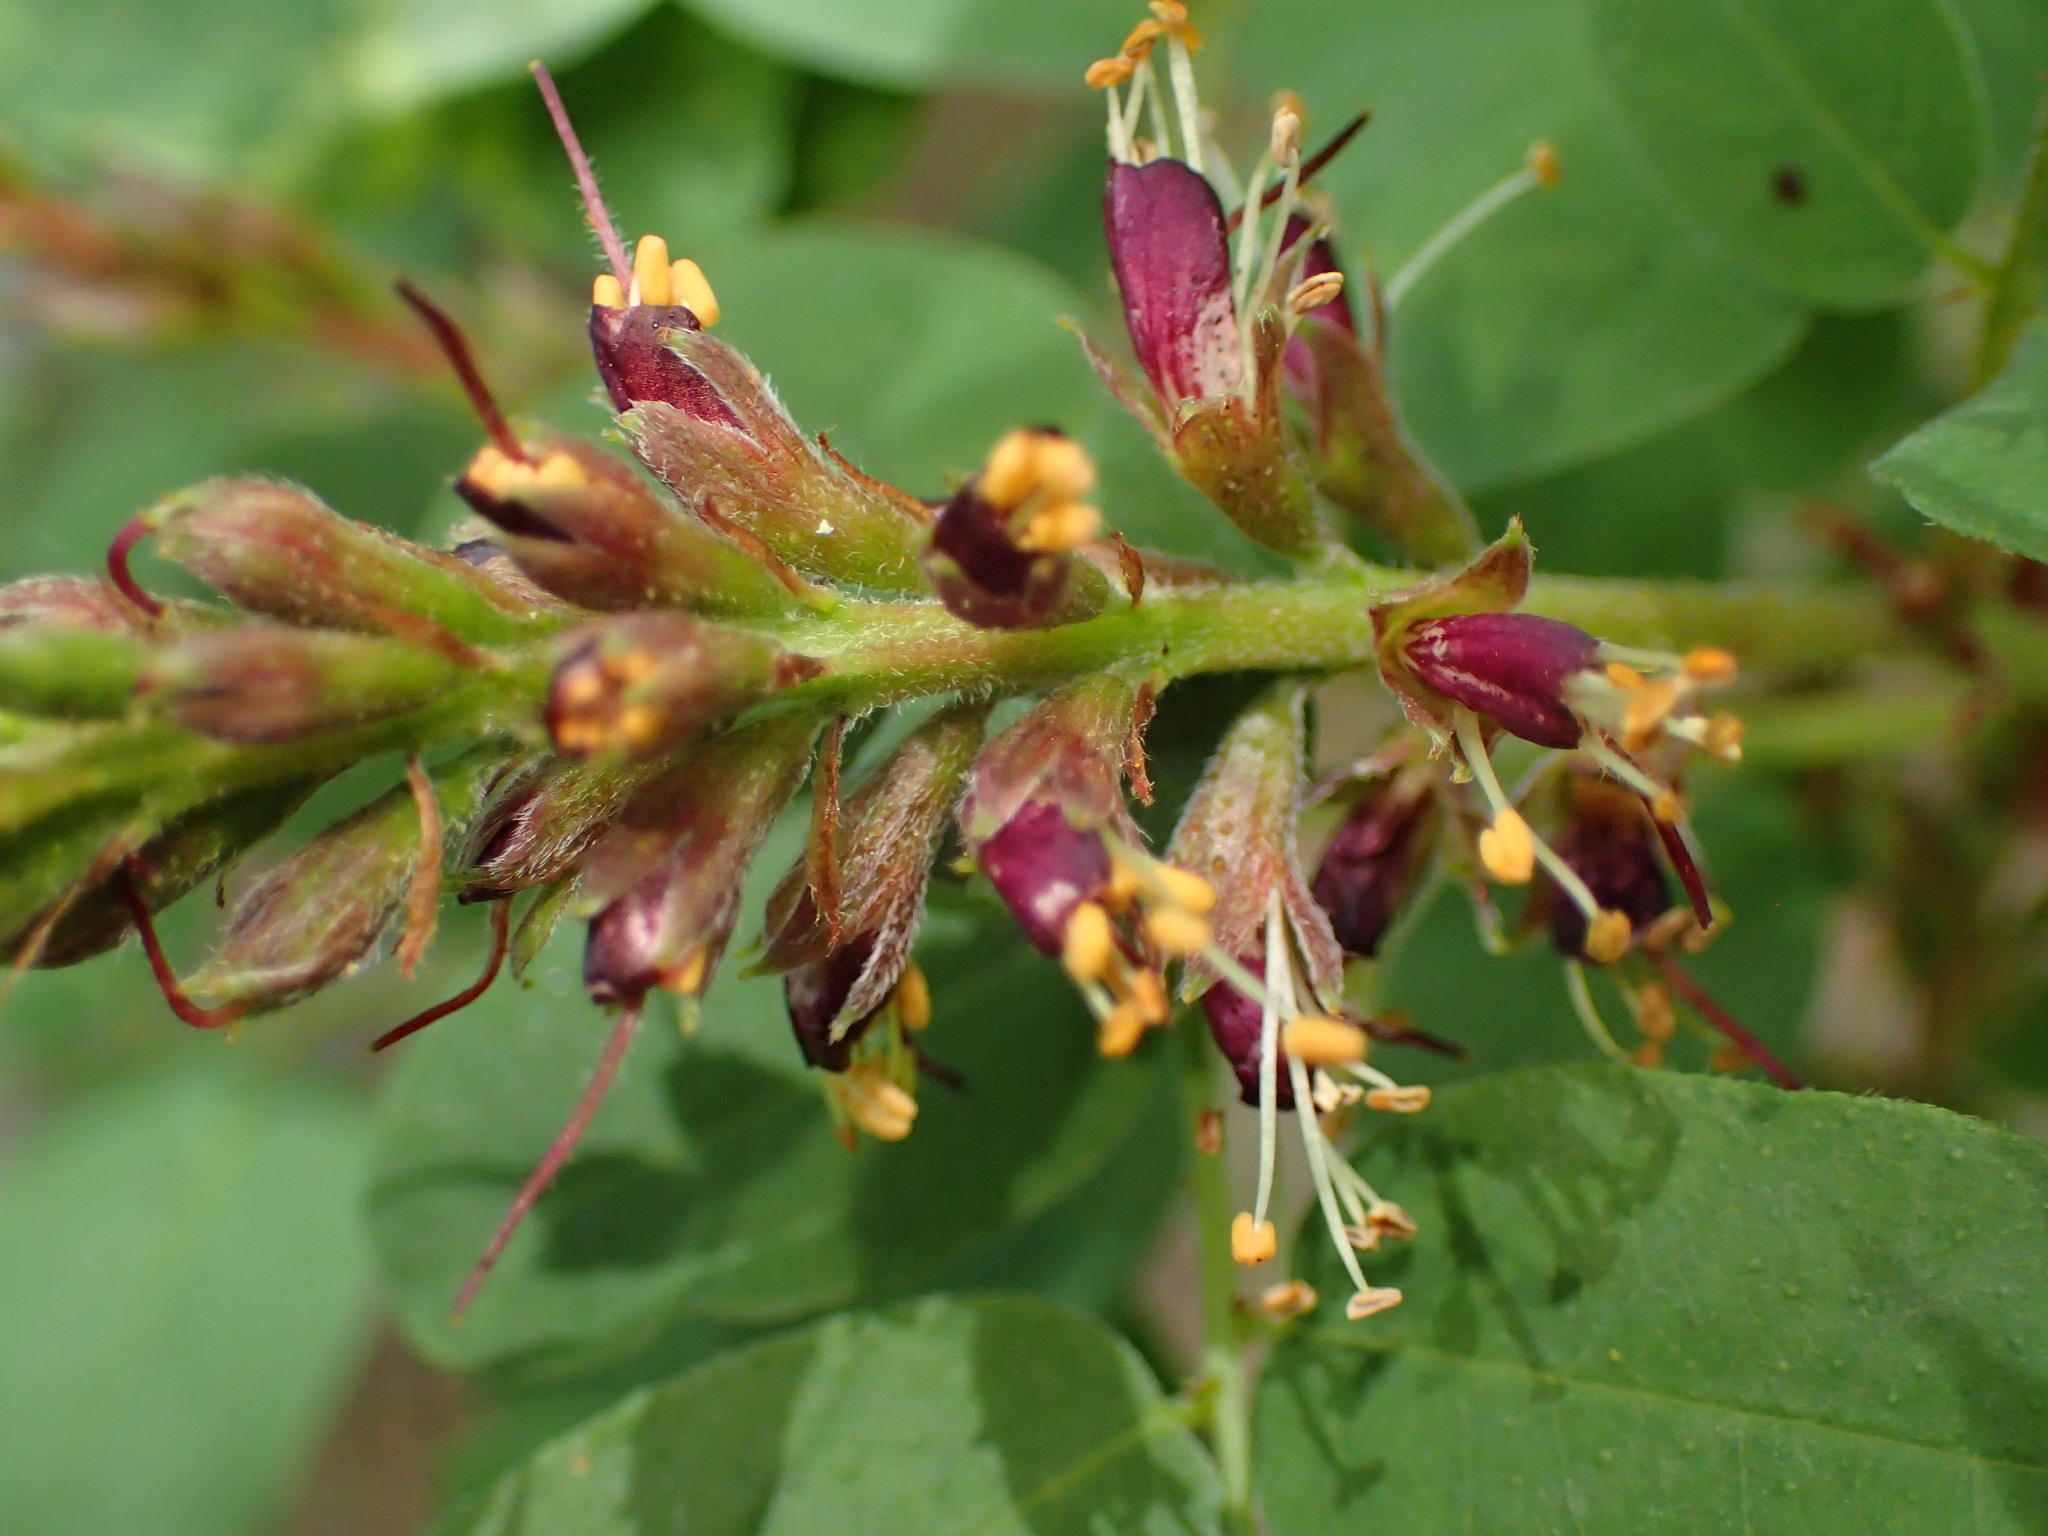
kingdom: Plantae
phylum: Tracheophyta
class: Magnoliopsida
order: Fabales
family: Fabaceae
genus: Amorpha
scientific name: Amorpha californica
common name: California indigobush
